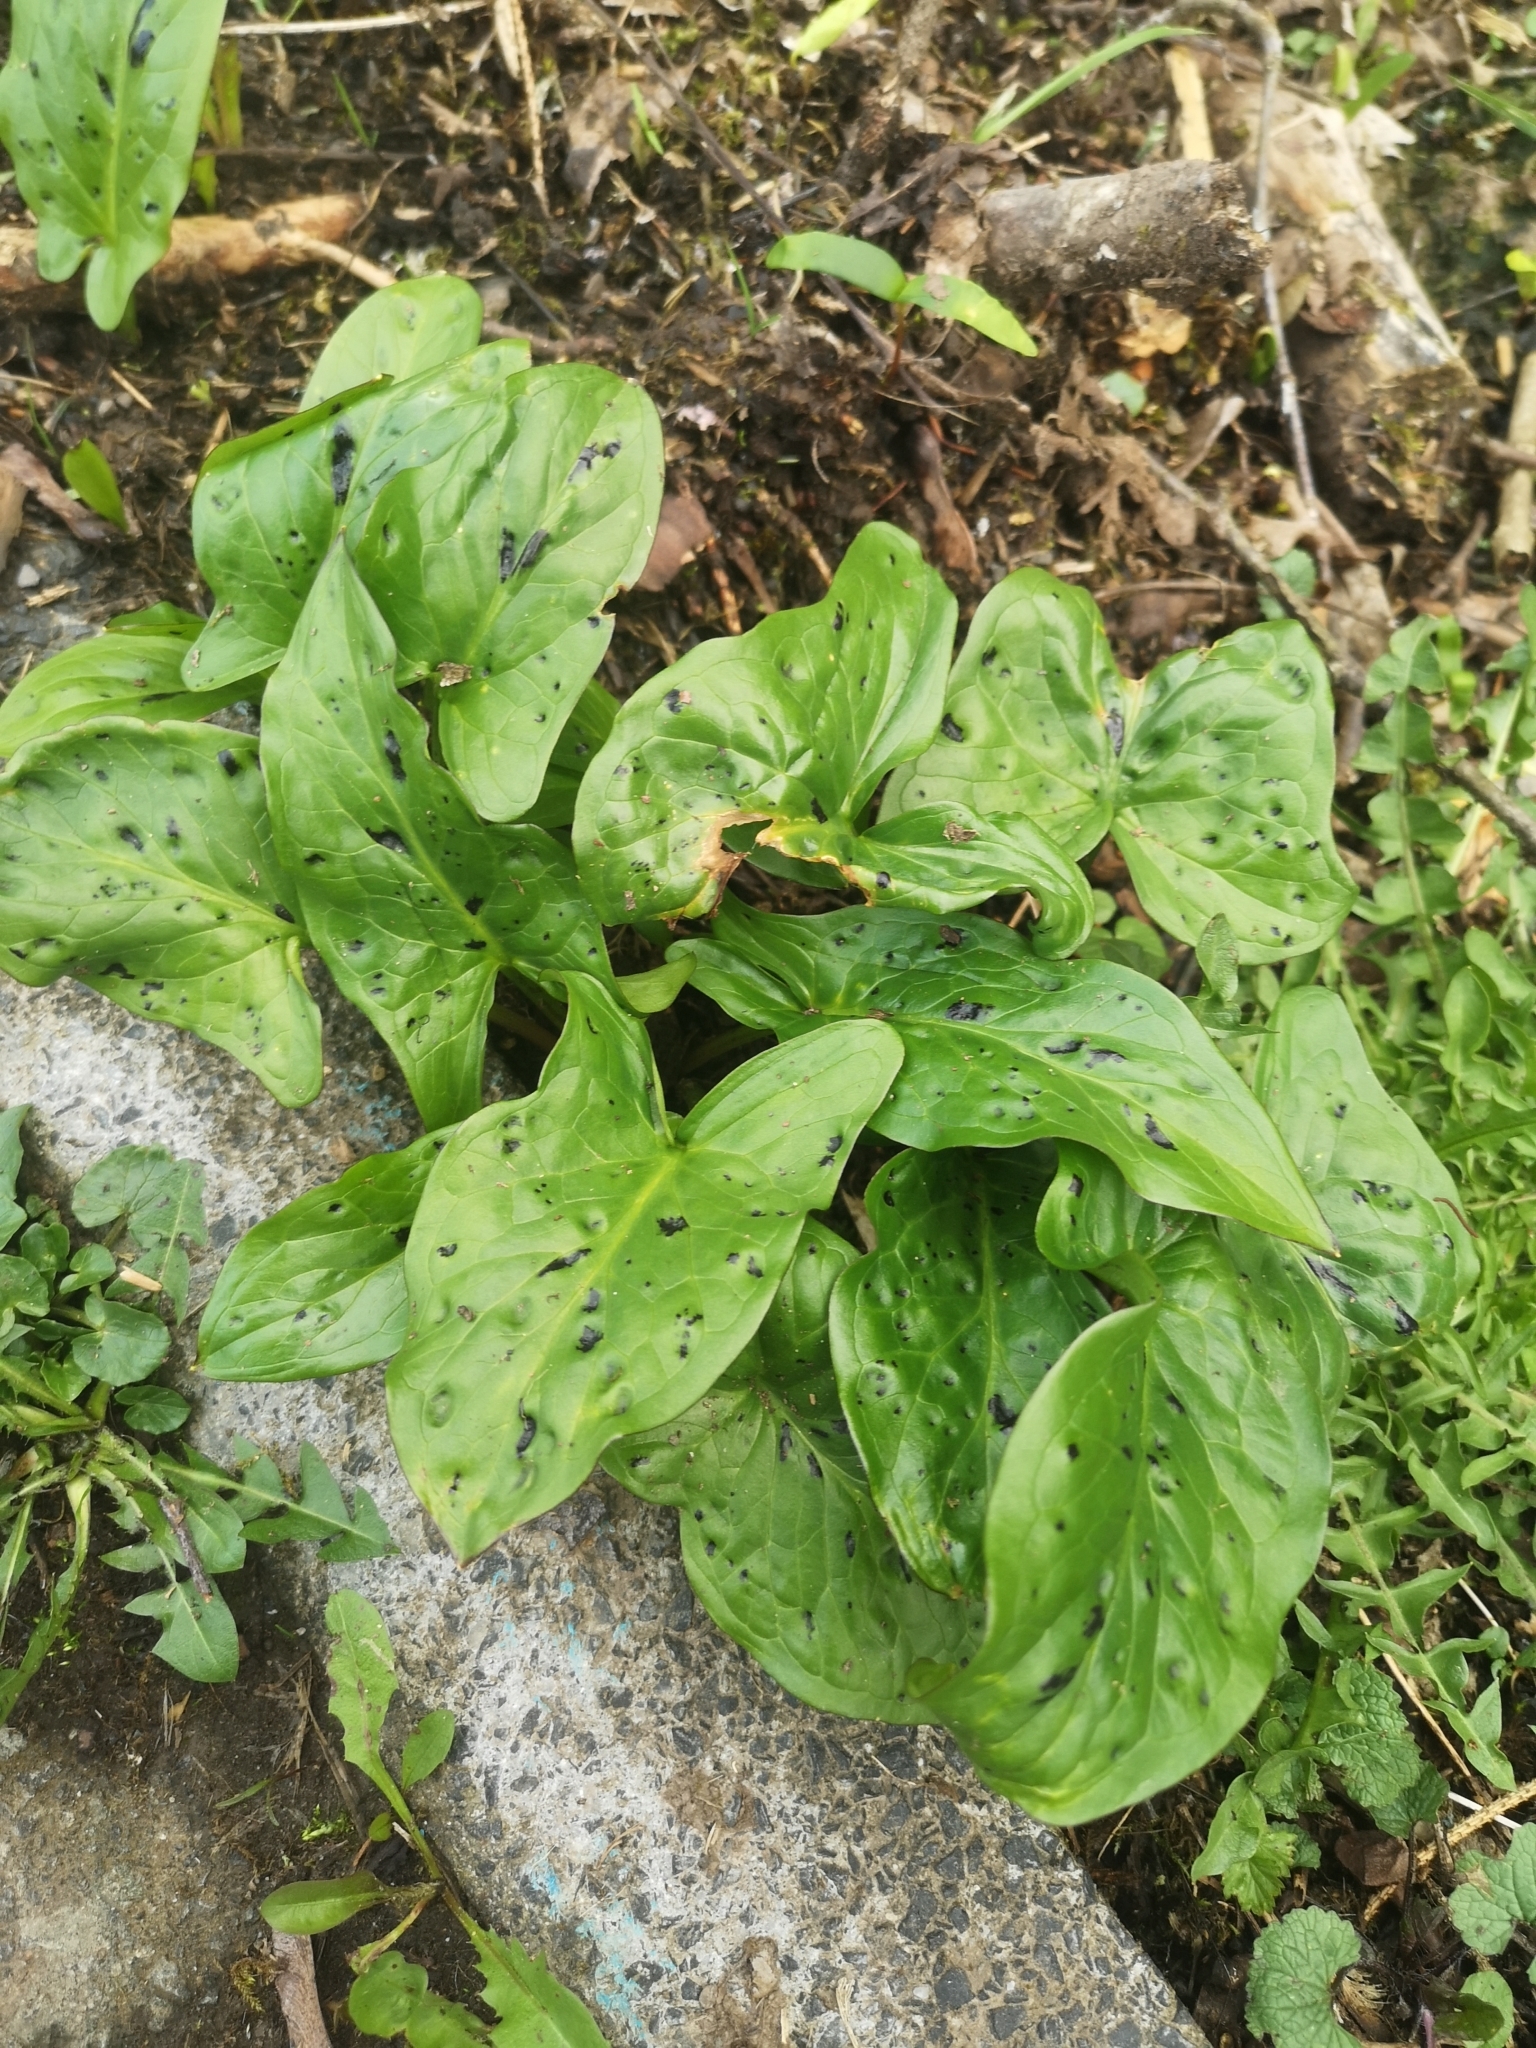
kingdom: Plantae
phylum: Tracheophyta
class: Liliopsida
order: Alismatales
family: Araceae
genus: Arum
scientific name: Arum maculatum
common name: Lords-and-ladies
